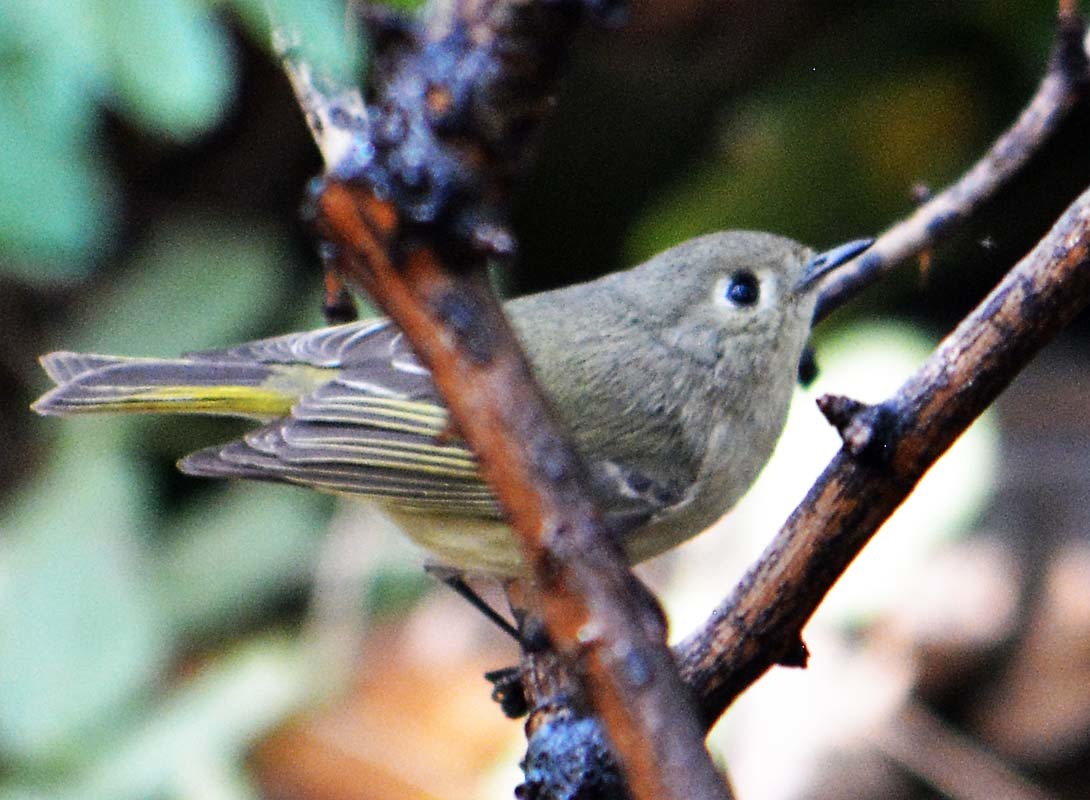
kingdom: Animalia
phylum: Chordata
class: Aves
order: Passeriformes
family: Regulidae
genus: Regulus
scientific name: Regulus calendula
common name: Ruby-crowned kinglet
